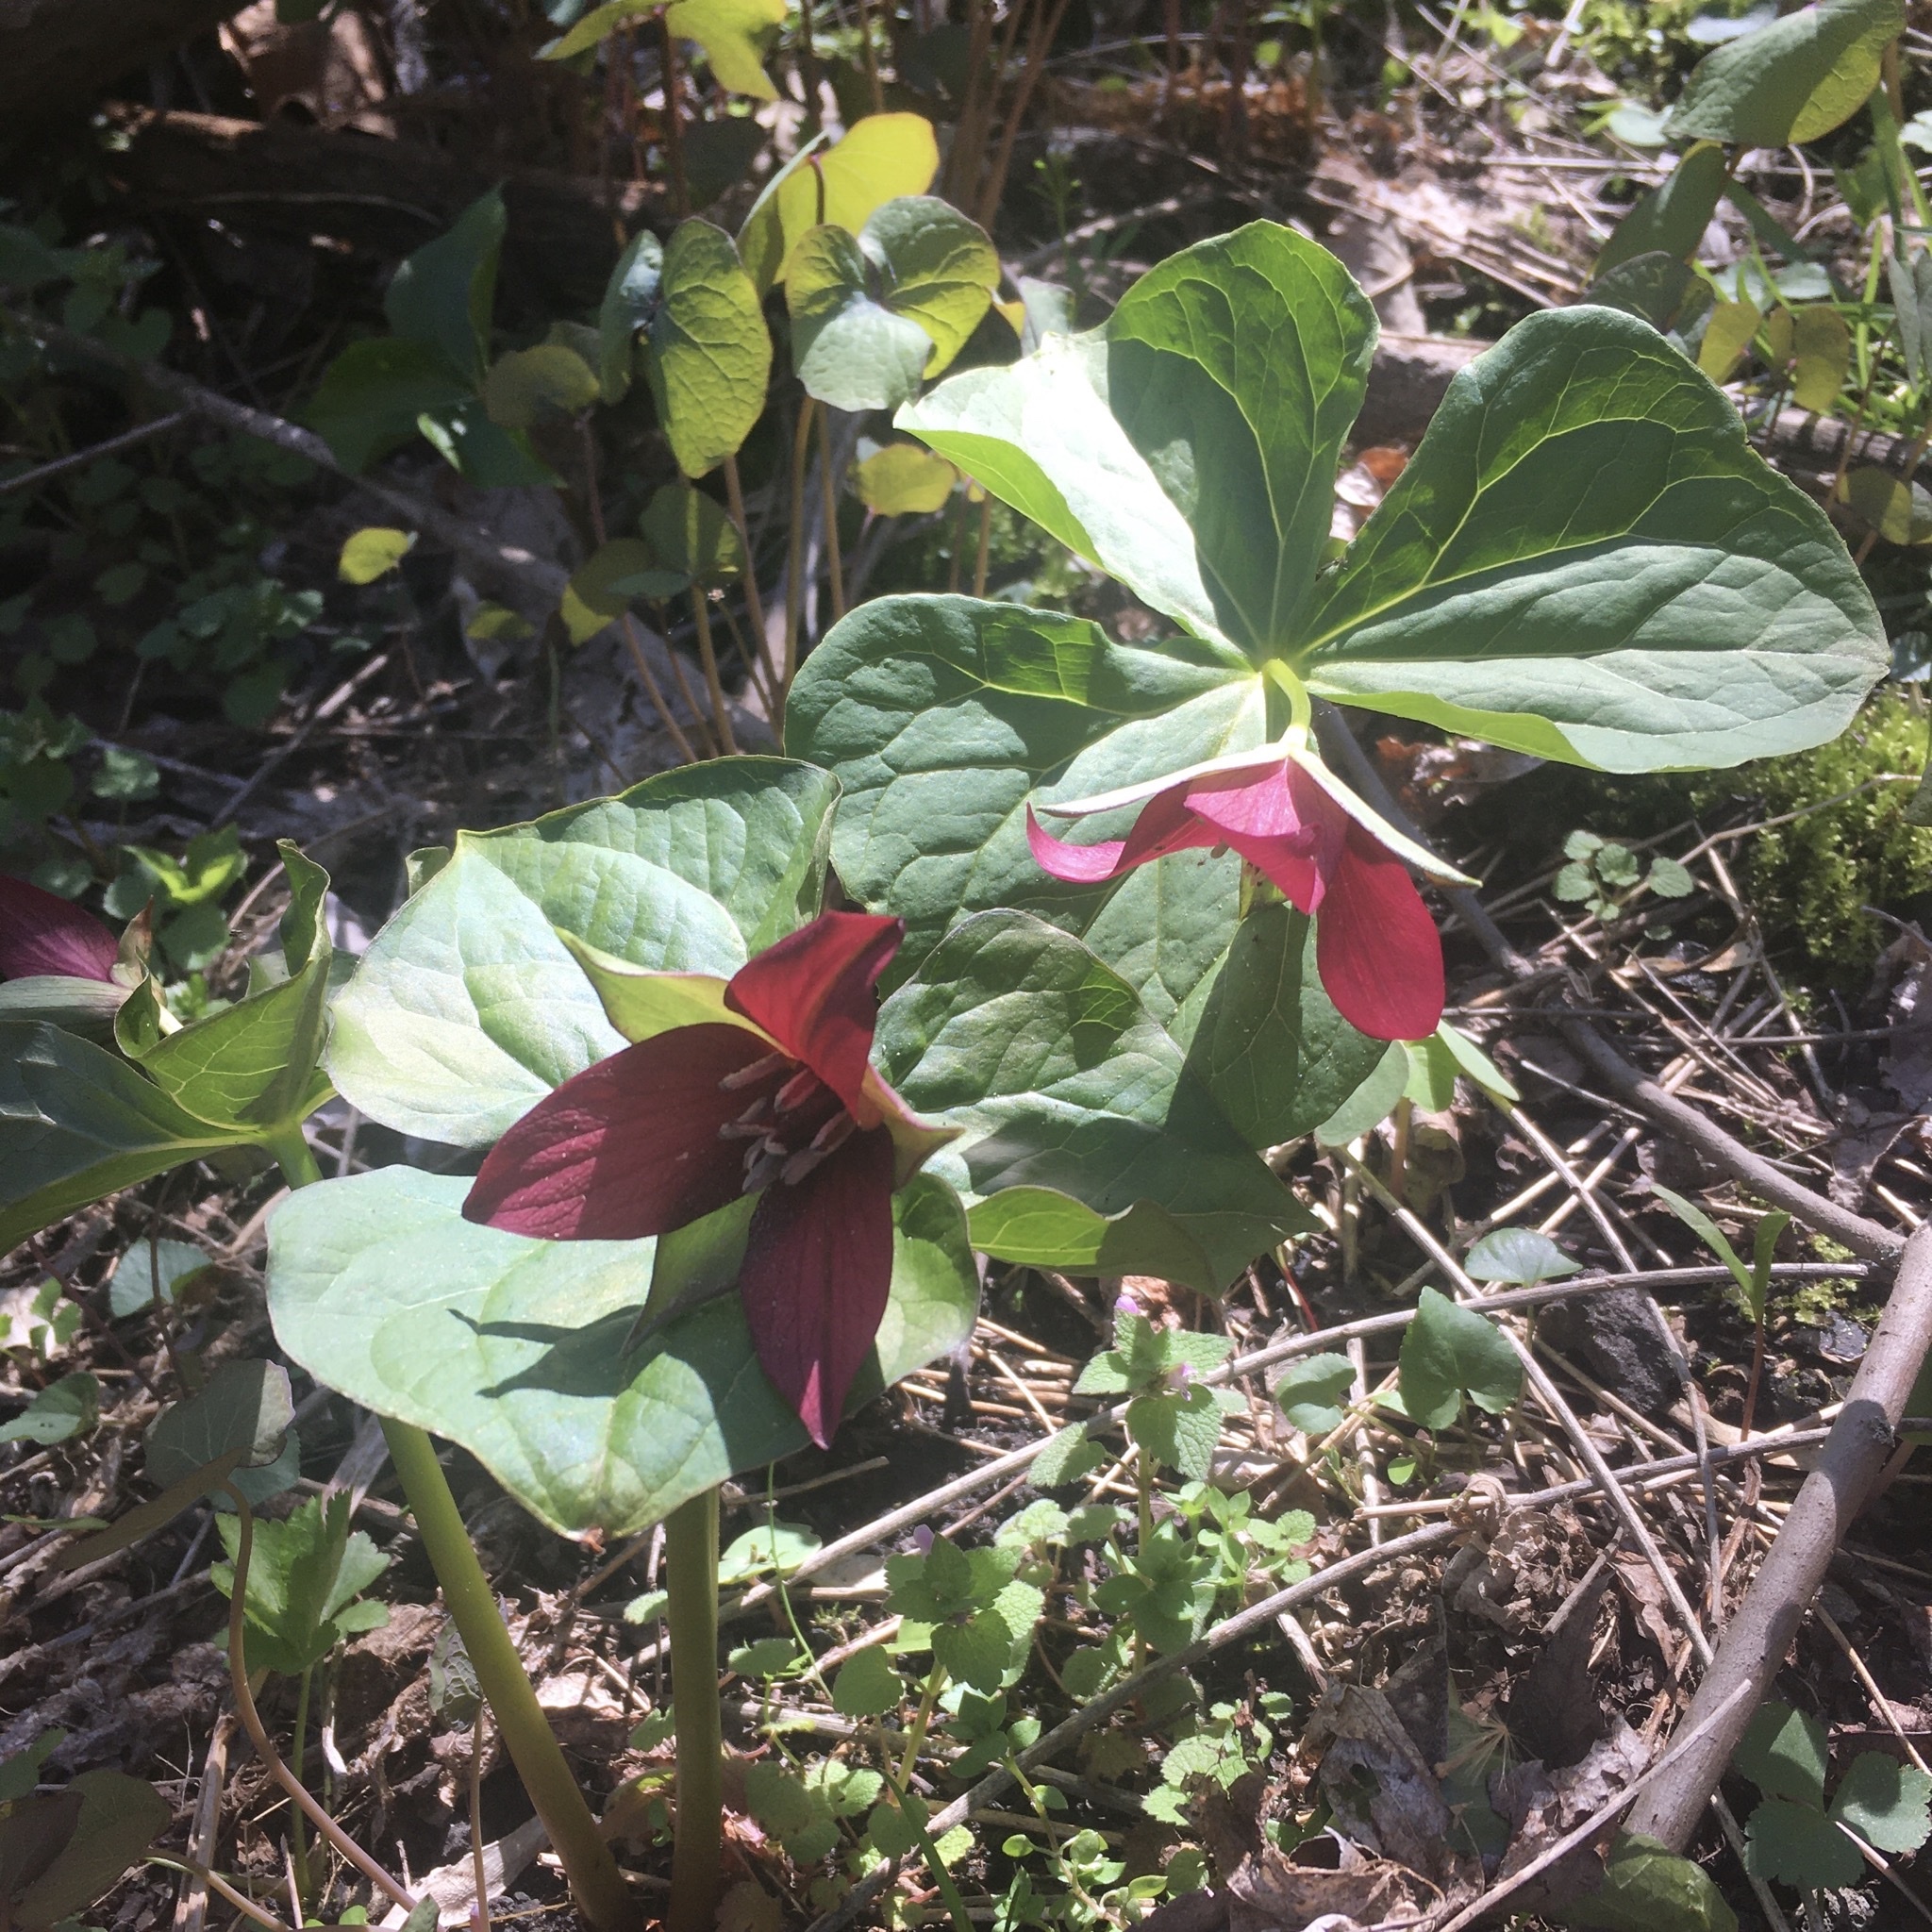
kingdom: Plantae
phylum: Tracheophyta
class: Liliopsida
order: Liliales
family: Melanthiaceae
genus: Trillium
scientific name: Trillium erectum
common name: Purple trillium
